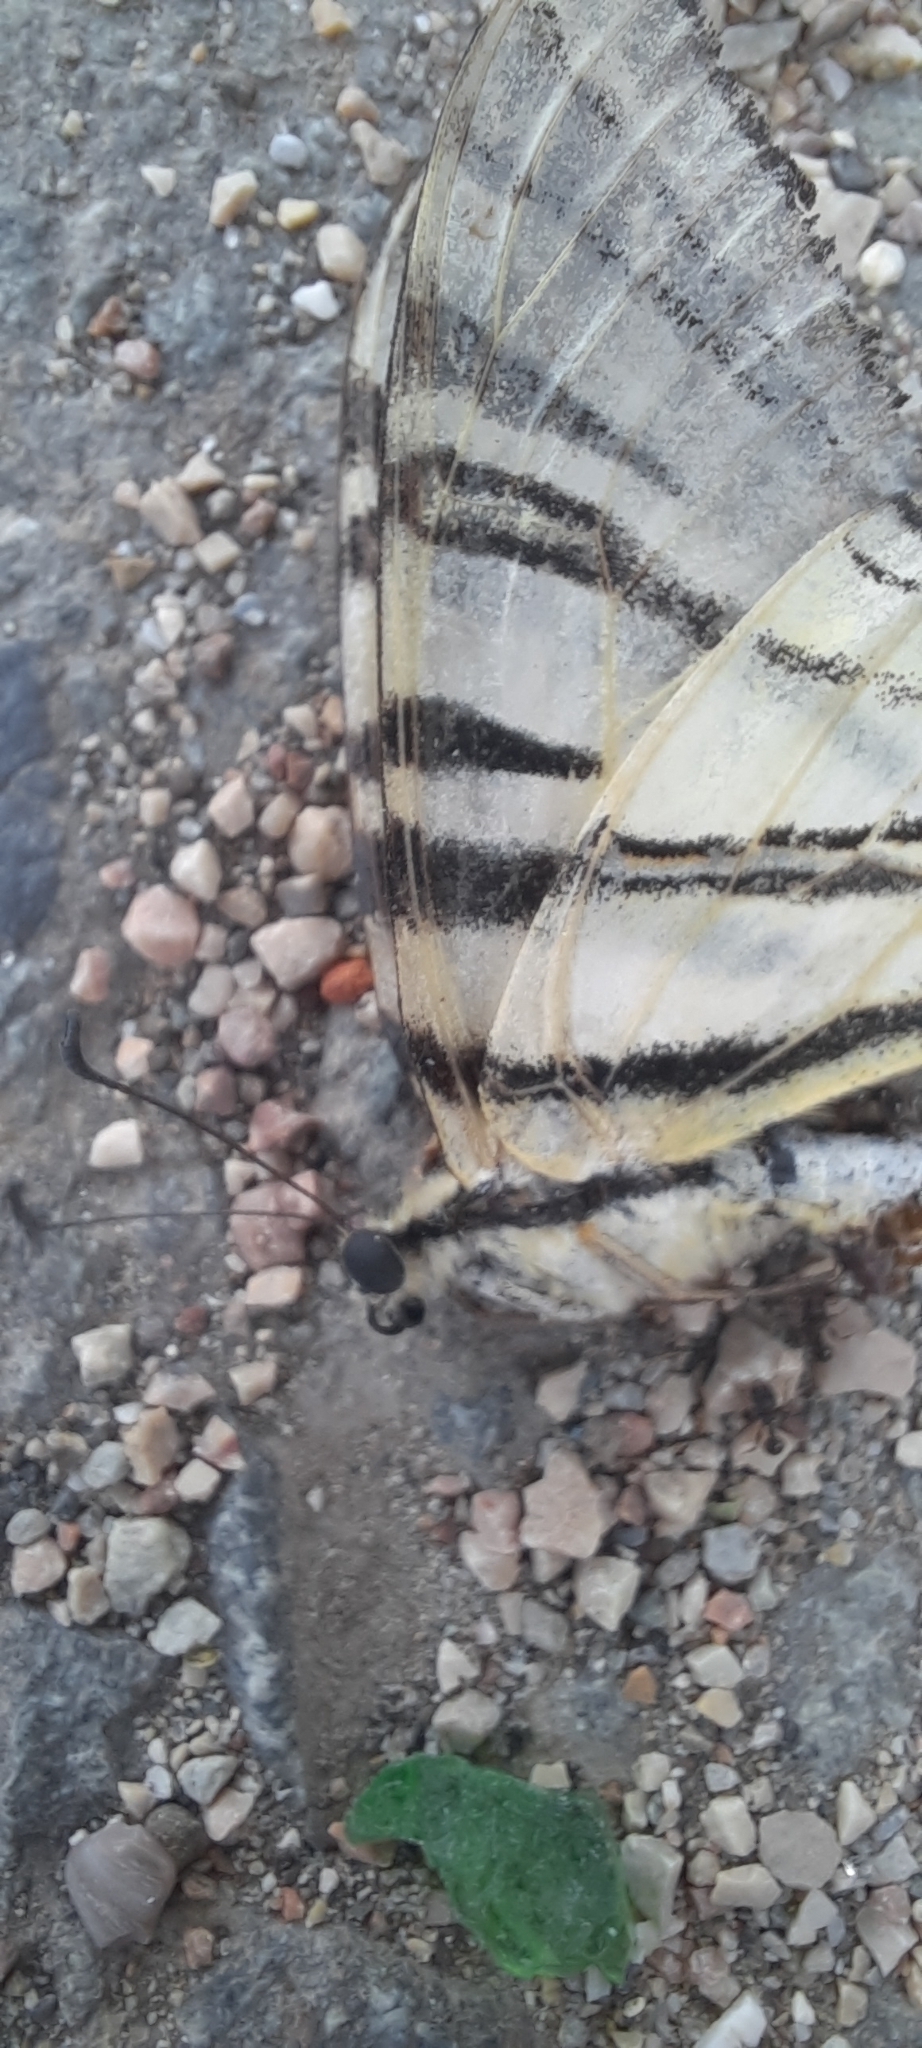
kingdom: Animalia
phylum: Arthropoda
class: Insecta
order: Lepidoptera
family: Papilionidae
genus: Iphiclides
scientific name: Iphiclides podalirius
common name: Scarce swallowtail
